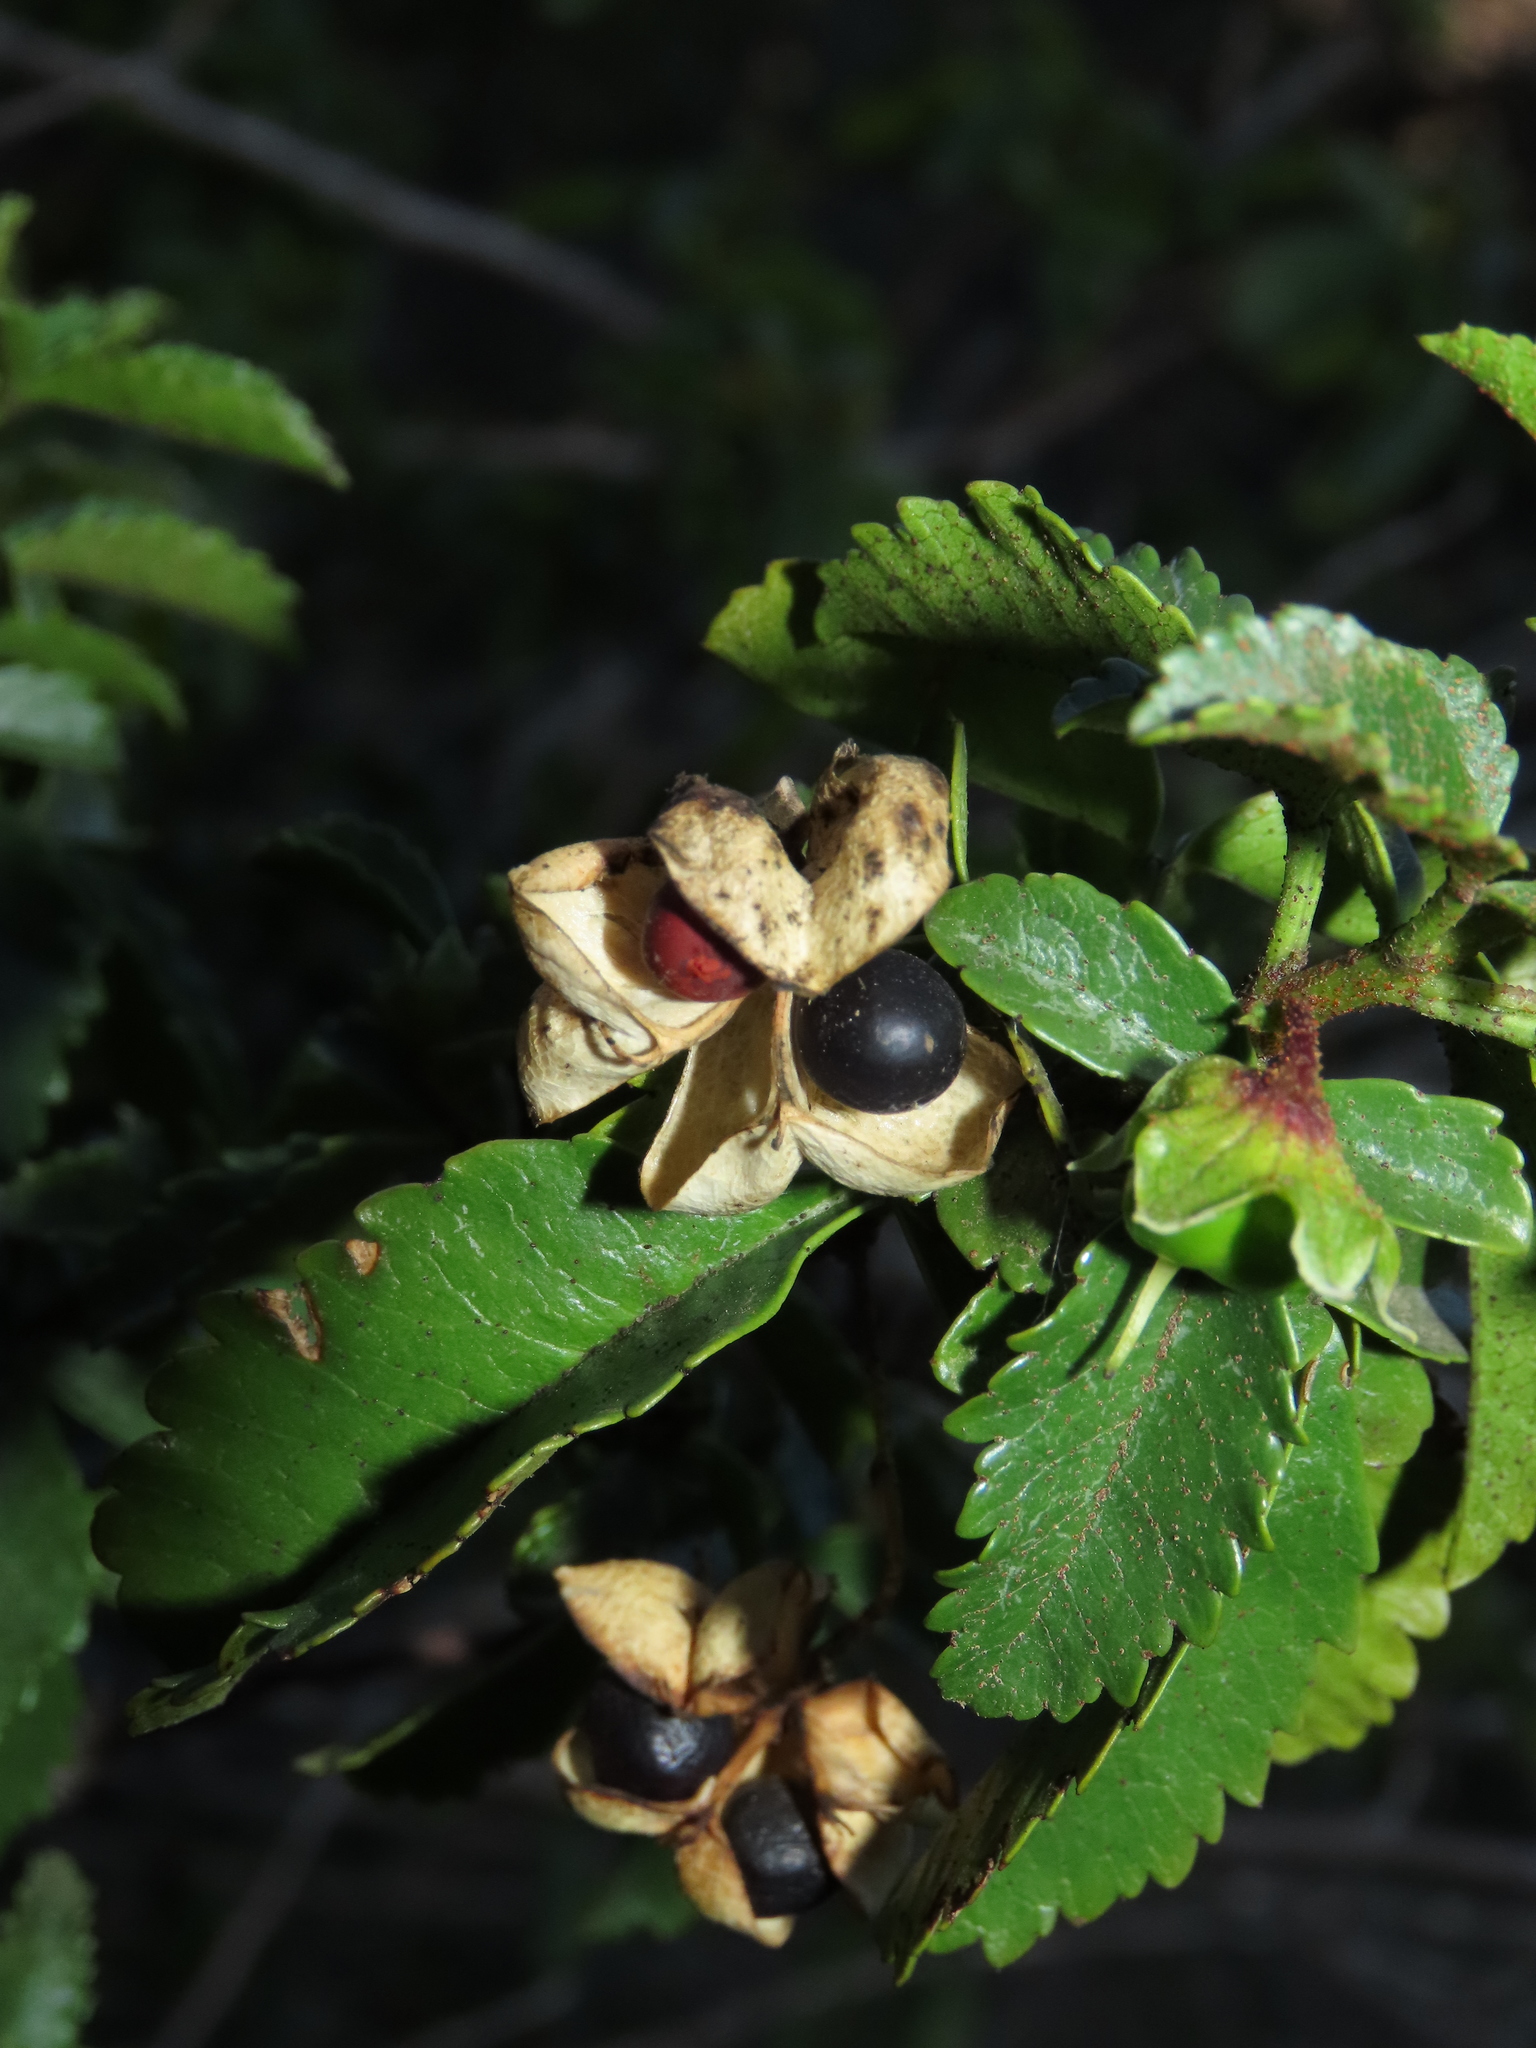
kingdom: Plantae
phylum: Tracheophyta
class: Magnoliopsida
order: Sapindales
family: Sapindaceae
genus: Llagunoa
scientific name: Llagunoa glandulosa
